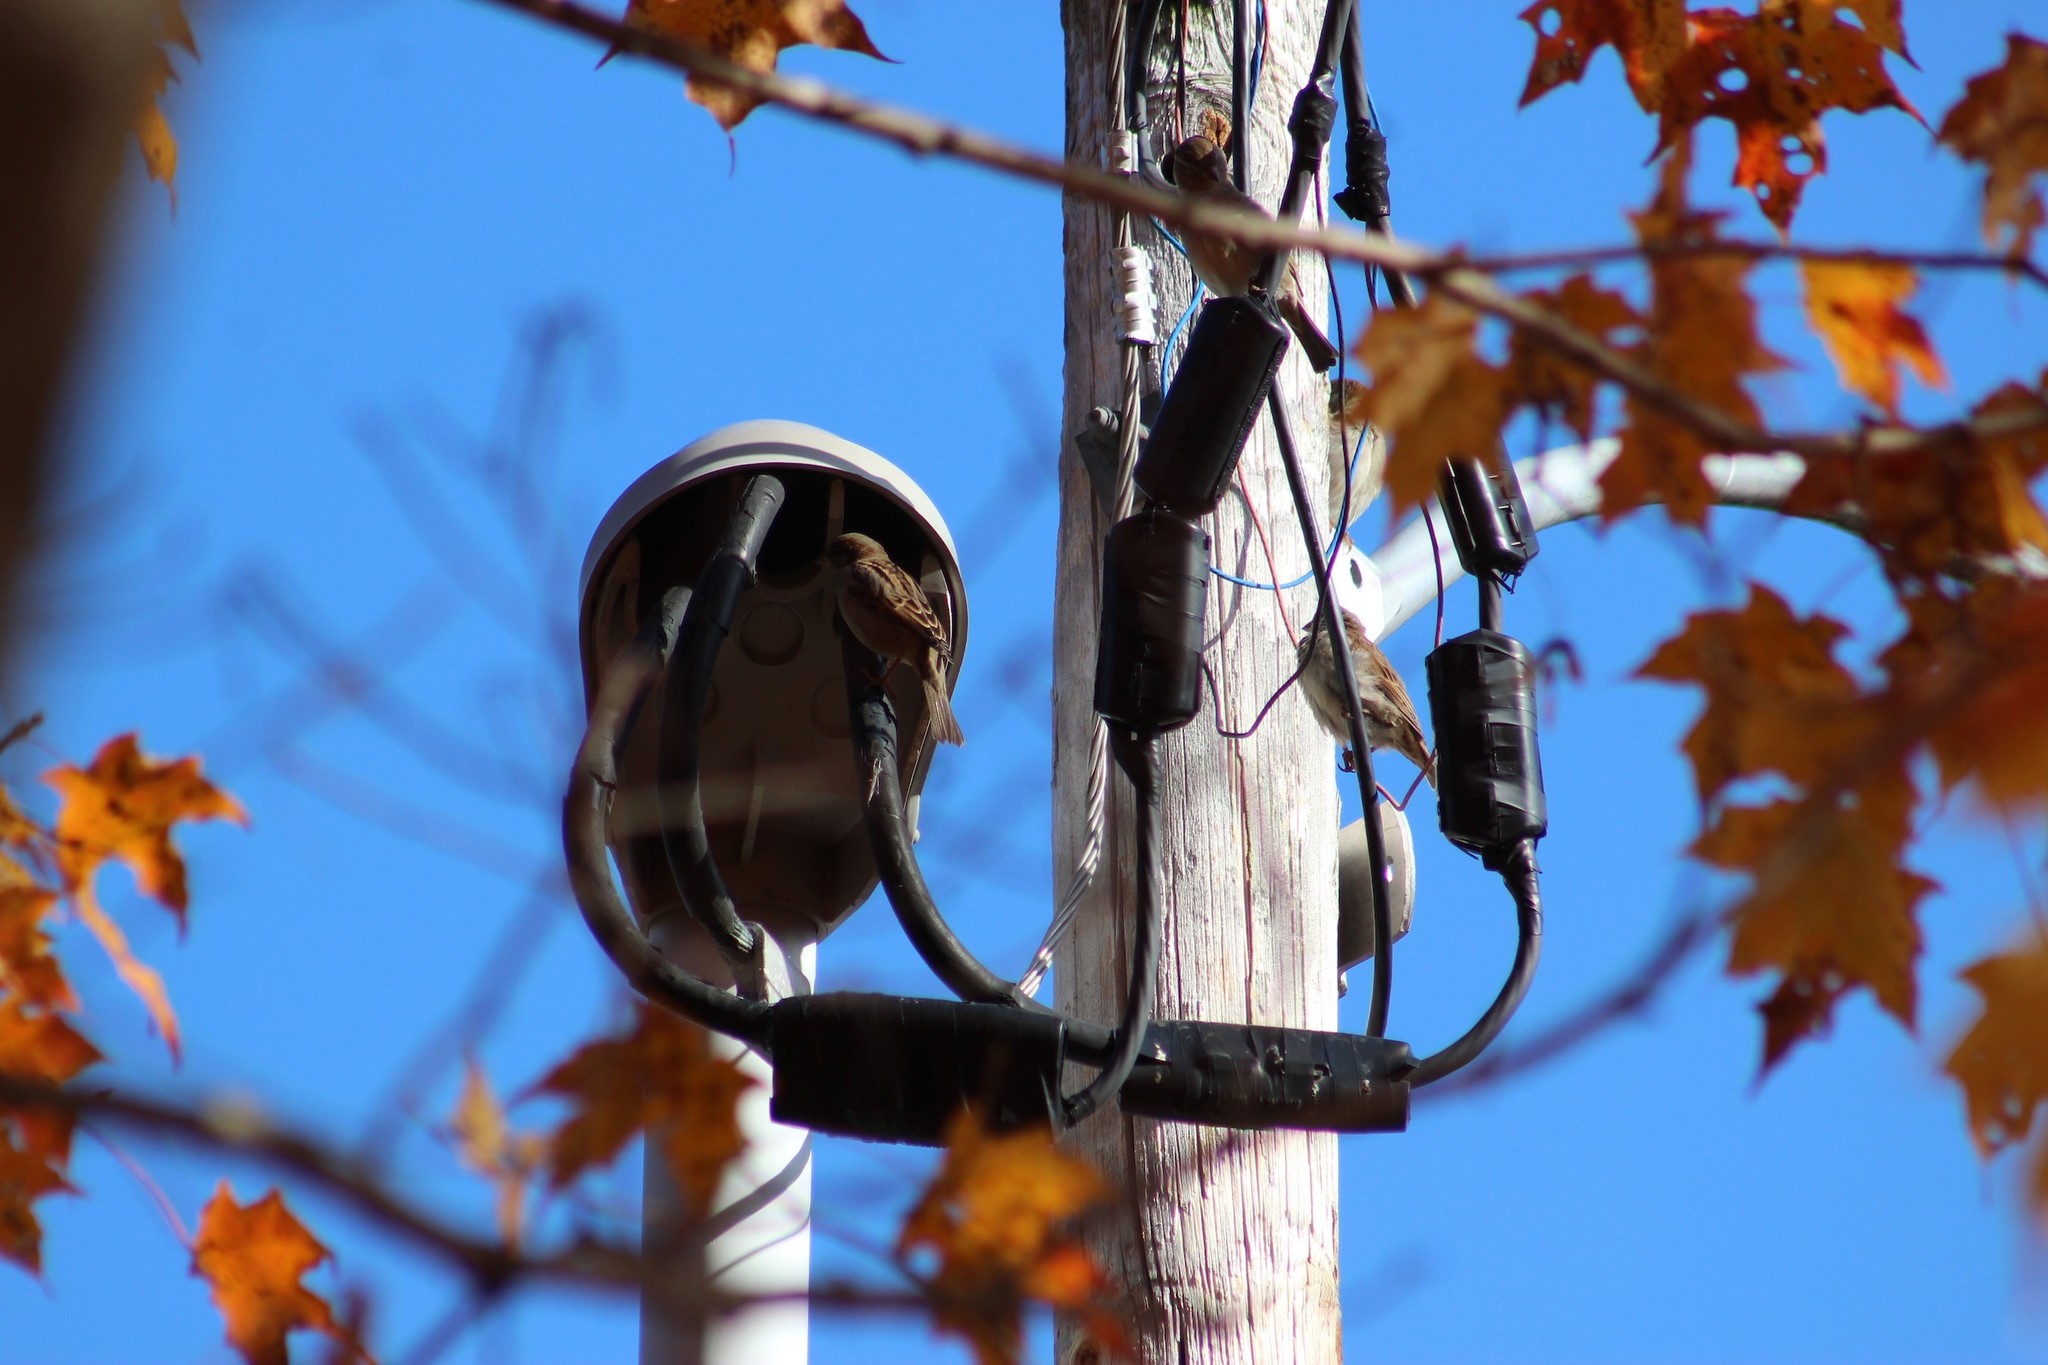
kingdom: Animalia
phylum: Chordata
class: Aves
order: Passeriformes
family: Passeridae
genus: Passer
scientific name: Passer domesticus
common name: House sparrow
